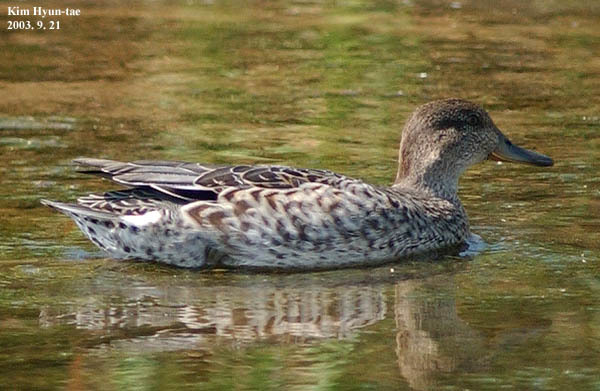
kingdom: Animalia
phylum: Chordata
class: Aves
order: Anseriformes
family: Anatidae
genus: Anas
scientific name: Anas crecca
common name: Eurasian teal
